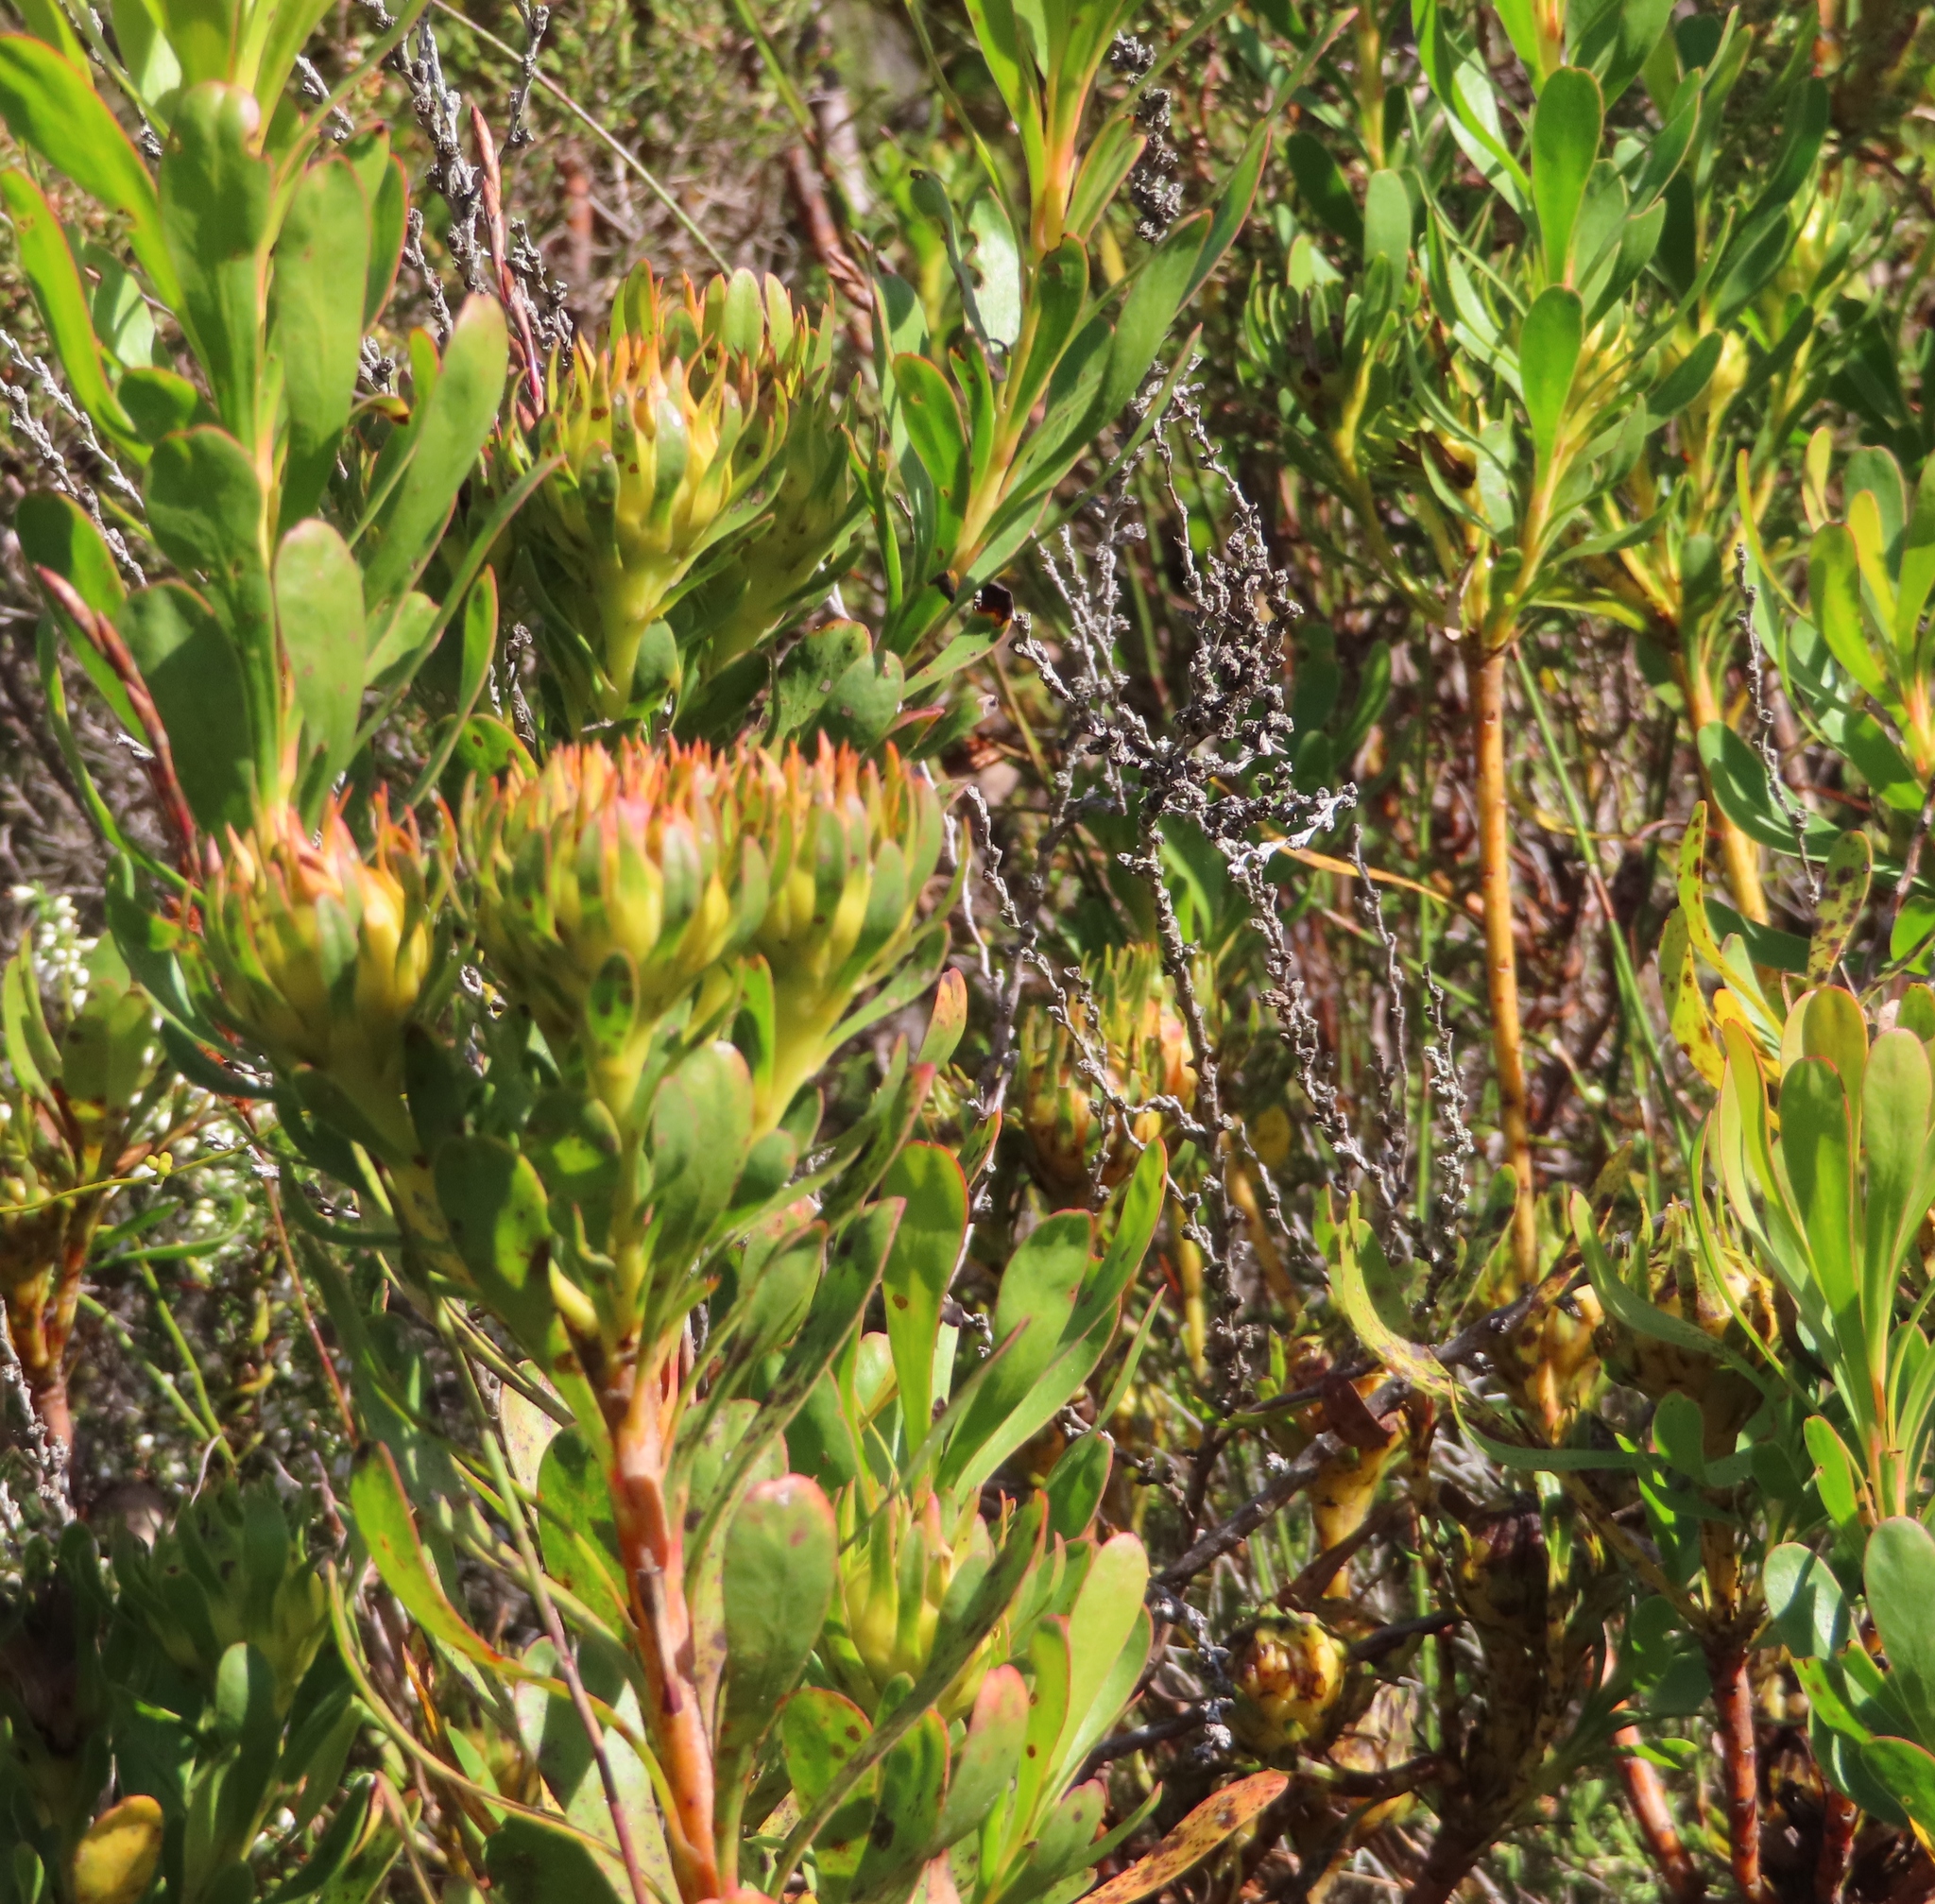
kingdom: Plantae
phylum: Tracheophyta
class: Magnoliopsida
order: Proteales
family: Proteaceae
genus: Aulax
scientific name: Aulax umbellata
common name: Broad-leaf featherbush
